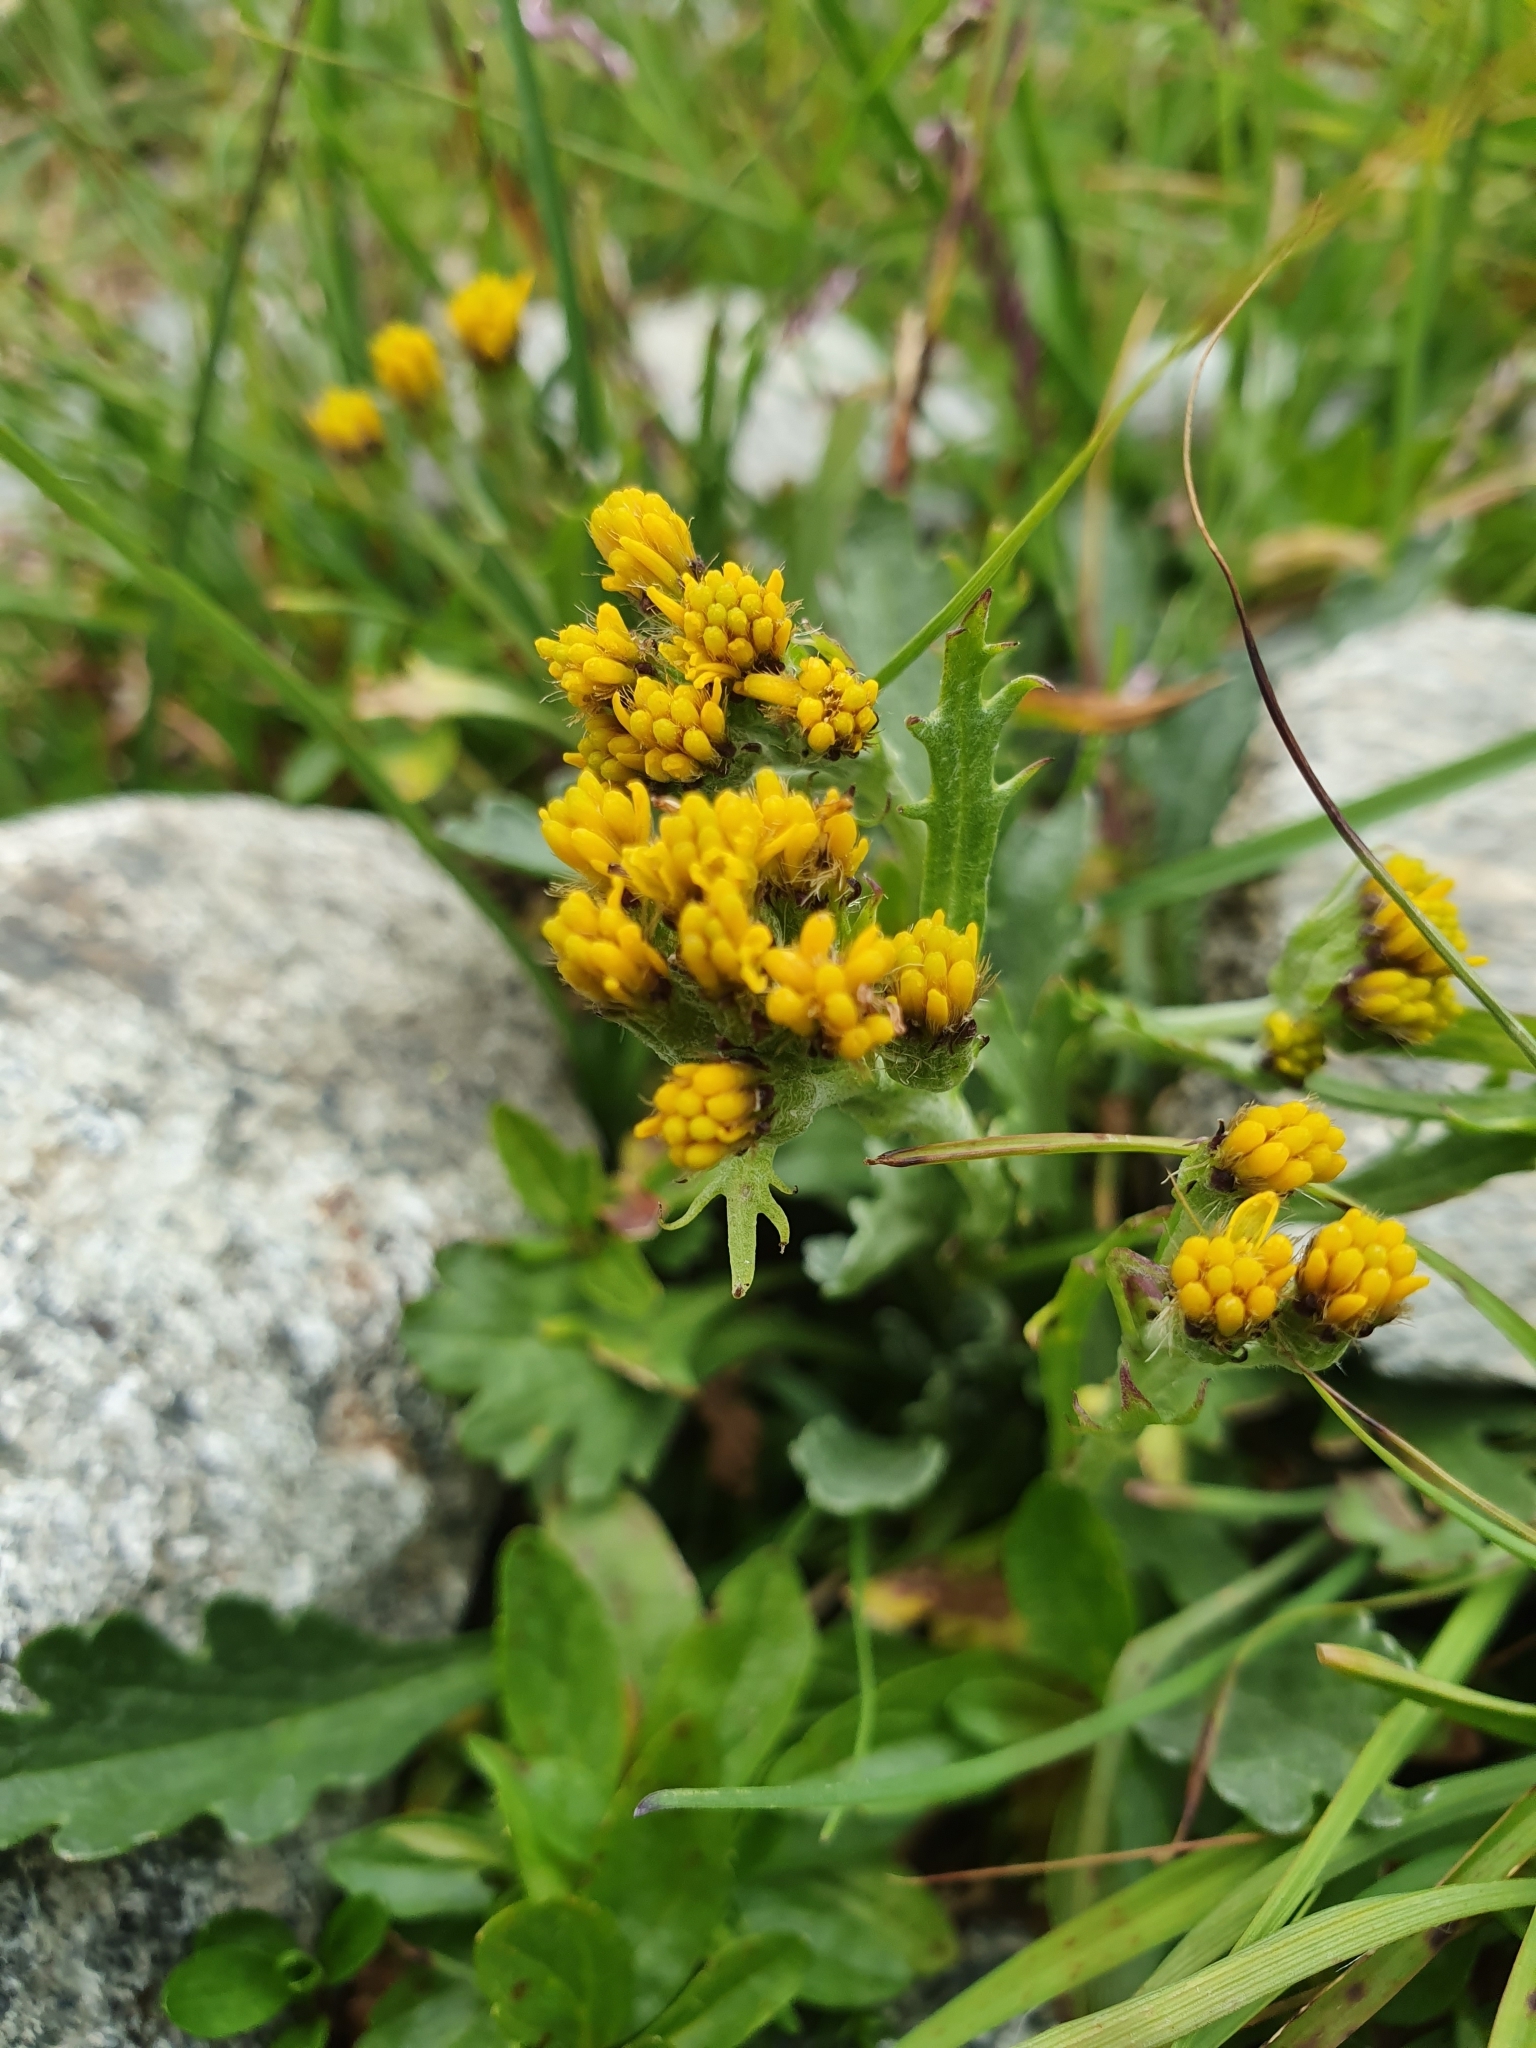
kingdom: Plantae
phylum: Tracheophyta
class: Magnoliopsida
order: Asterales
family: Asteraceae
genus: Jacobaea
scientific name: Jacobaea carniolica
